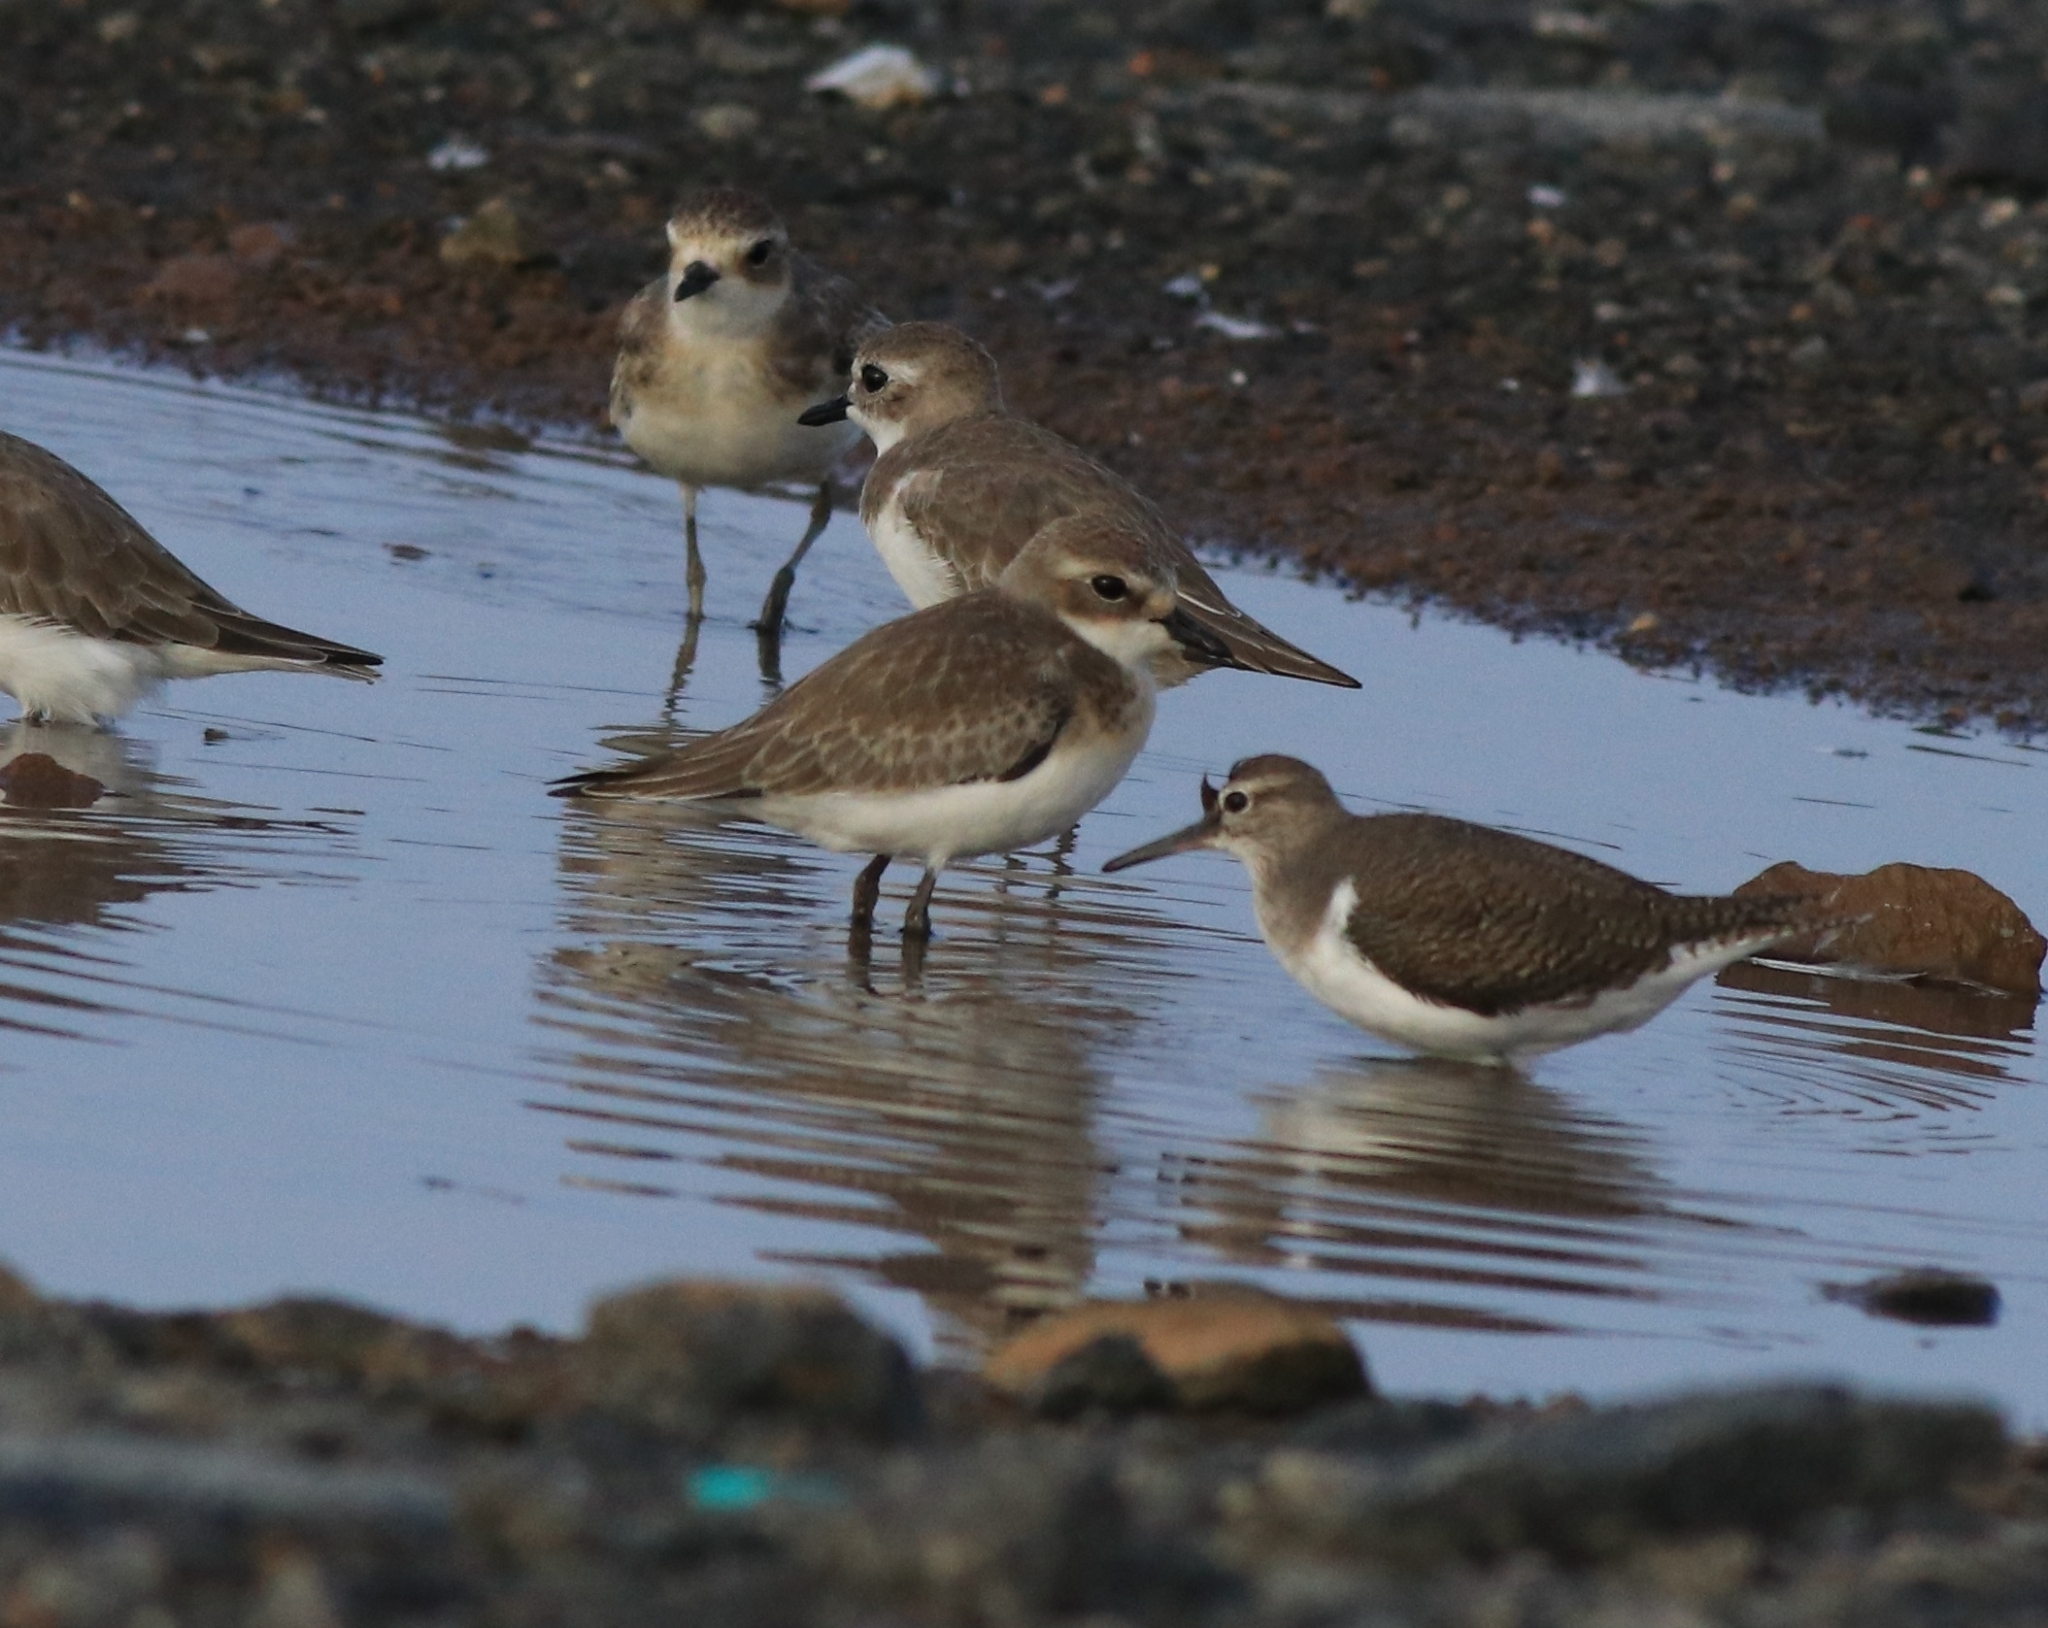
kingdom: Animalia
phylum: Chordata
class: Aves
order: Charadriiformes
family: Charadriidae
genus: Anarhynchus
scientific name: Anarhynchus
